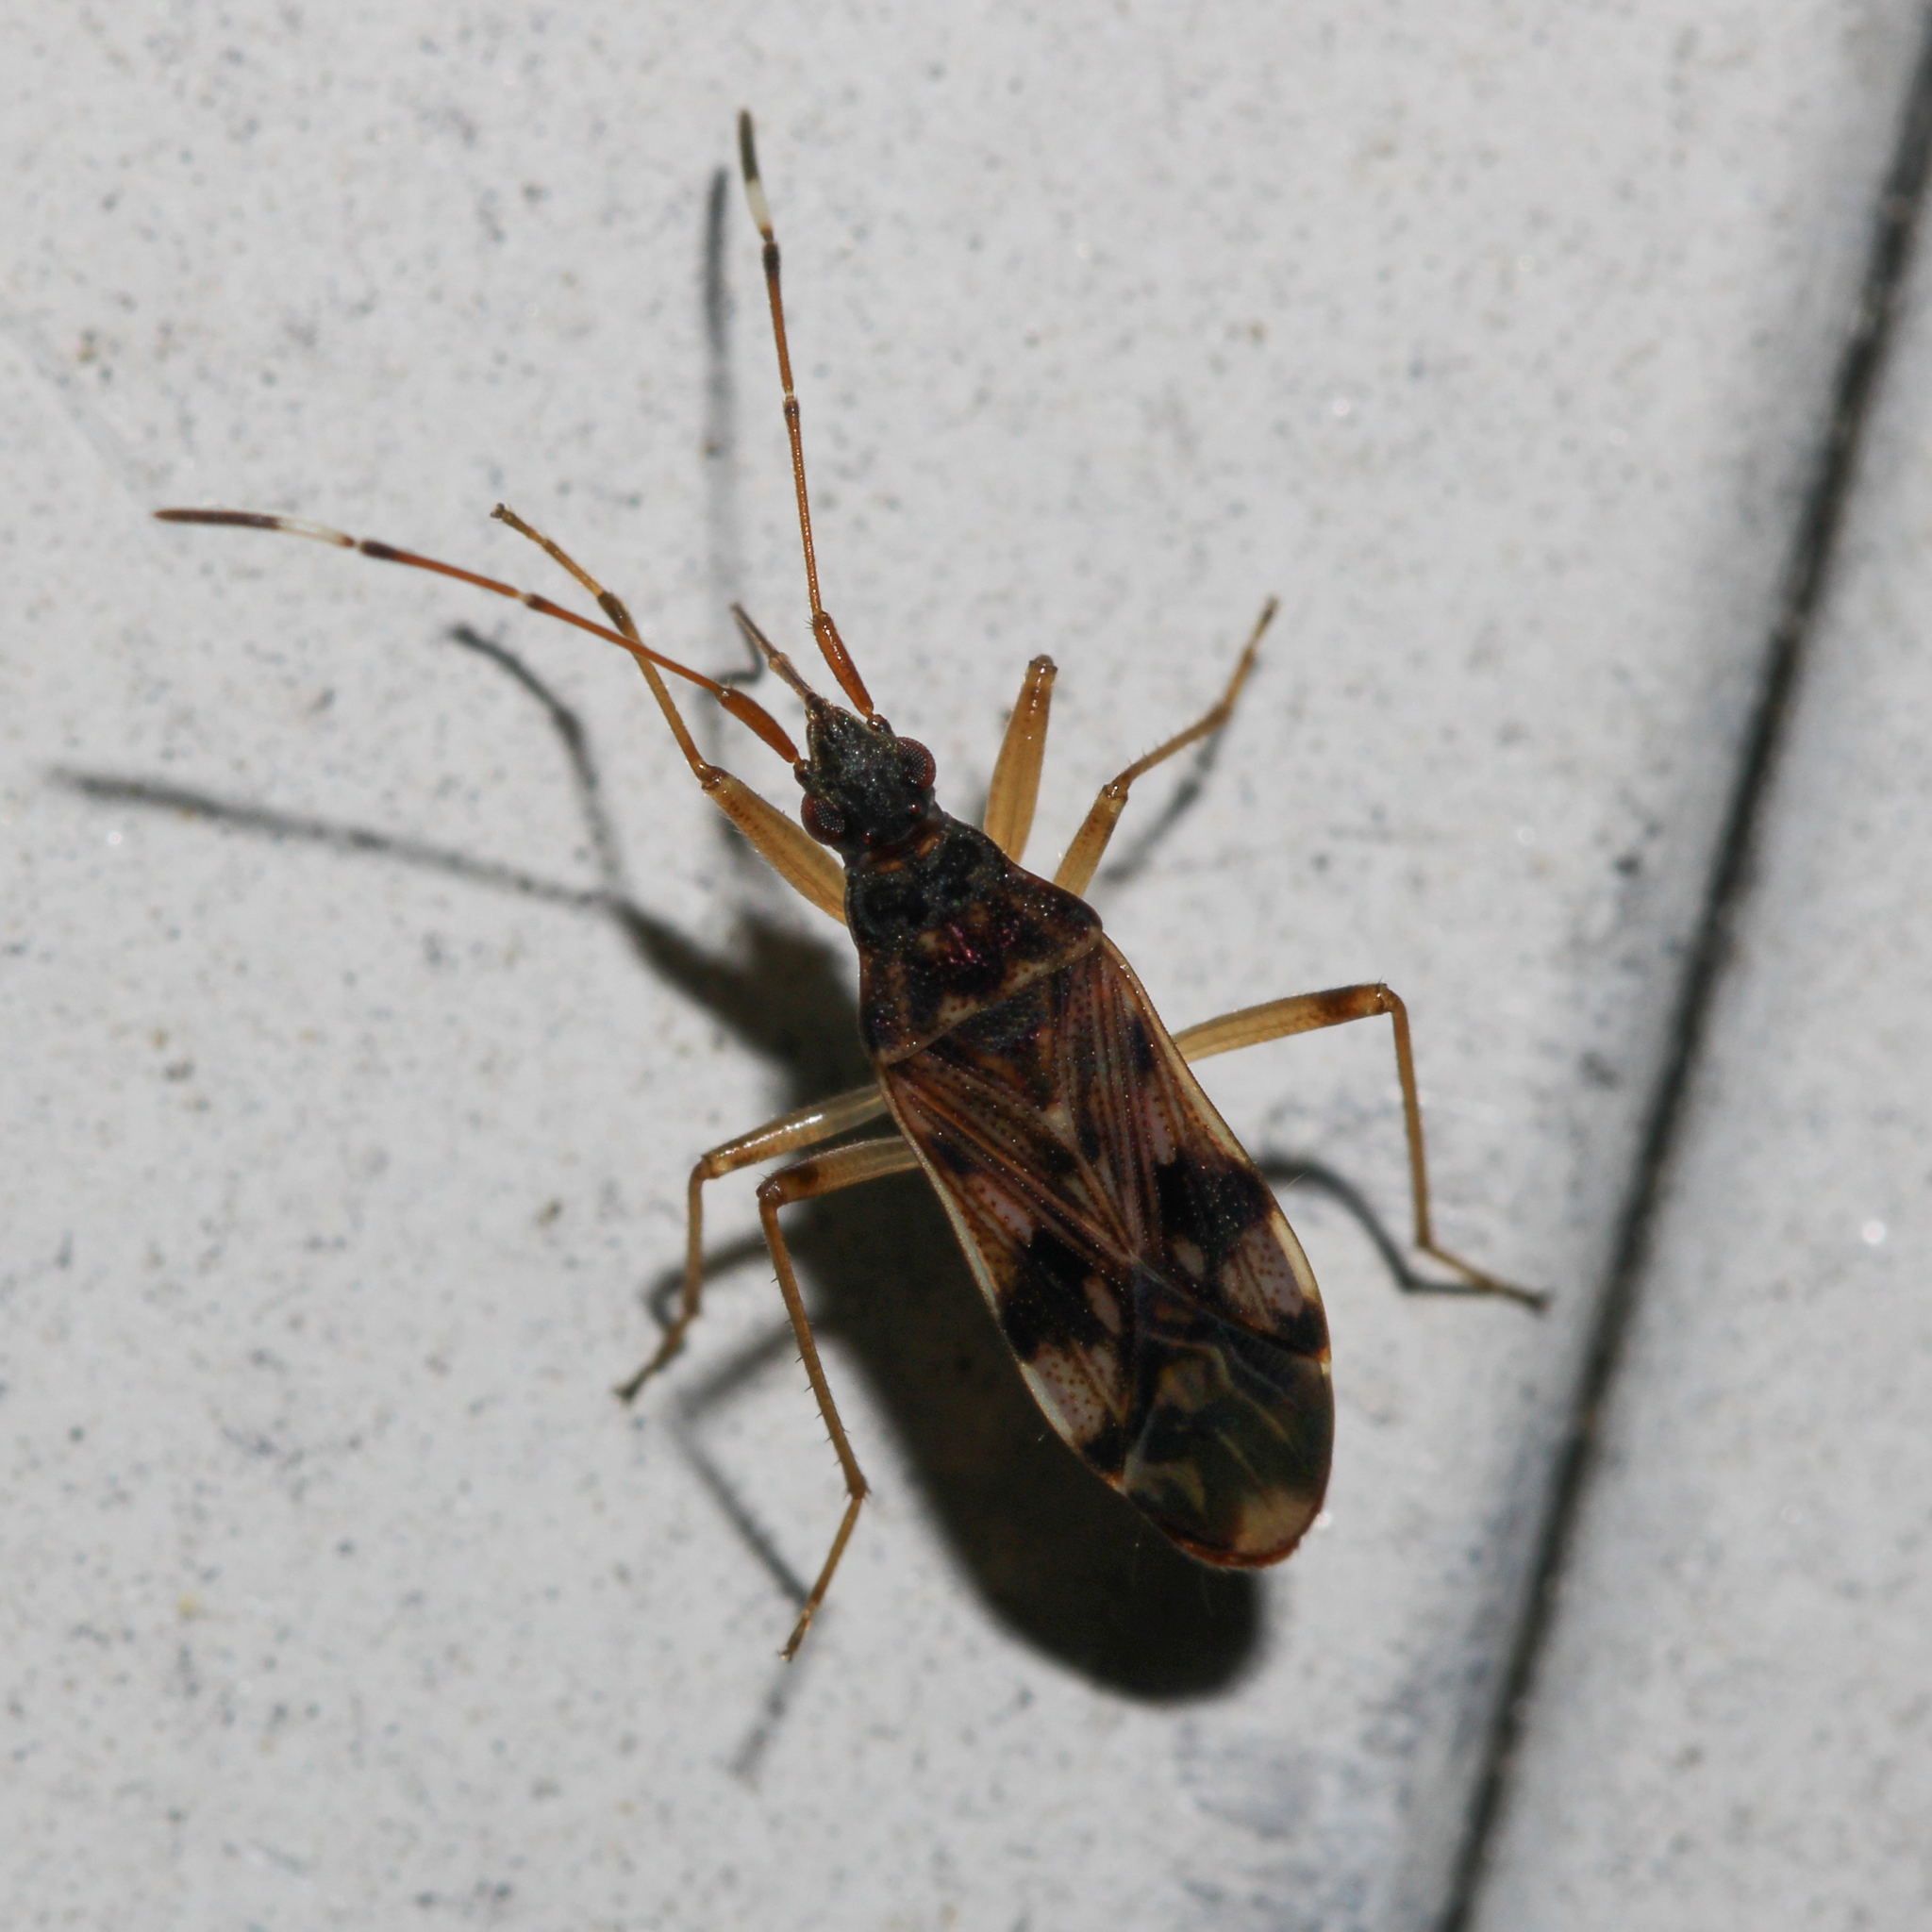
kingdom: Animalia
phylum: Arthropoda
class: Insecta
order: Hemiptera
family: Rhyparochromidae
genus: Ozophora
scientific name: Ozophora picturata
